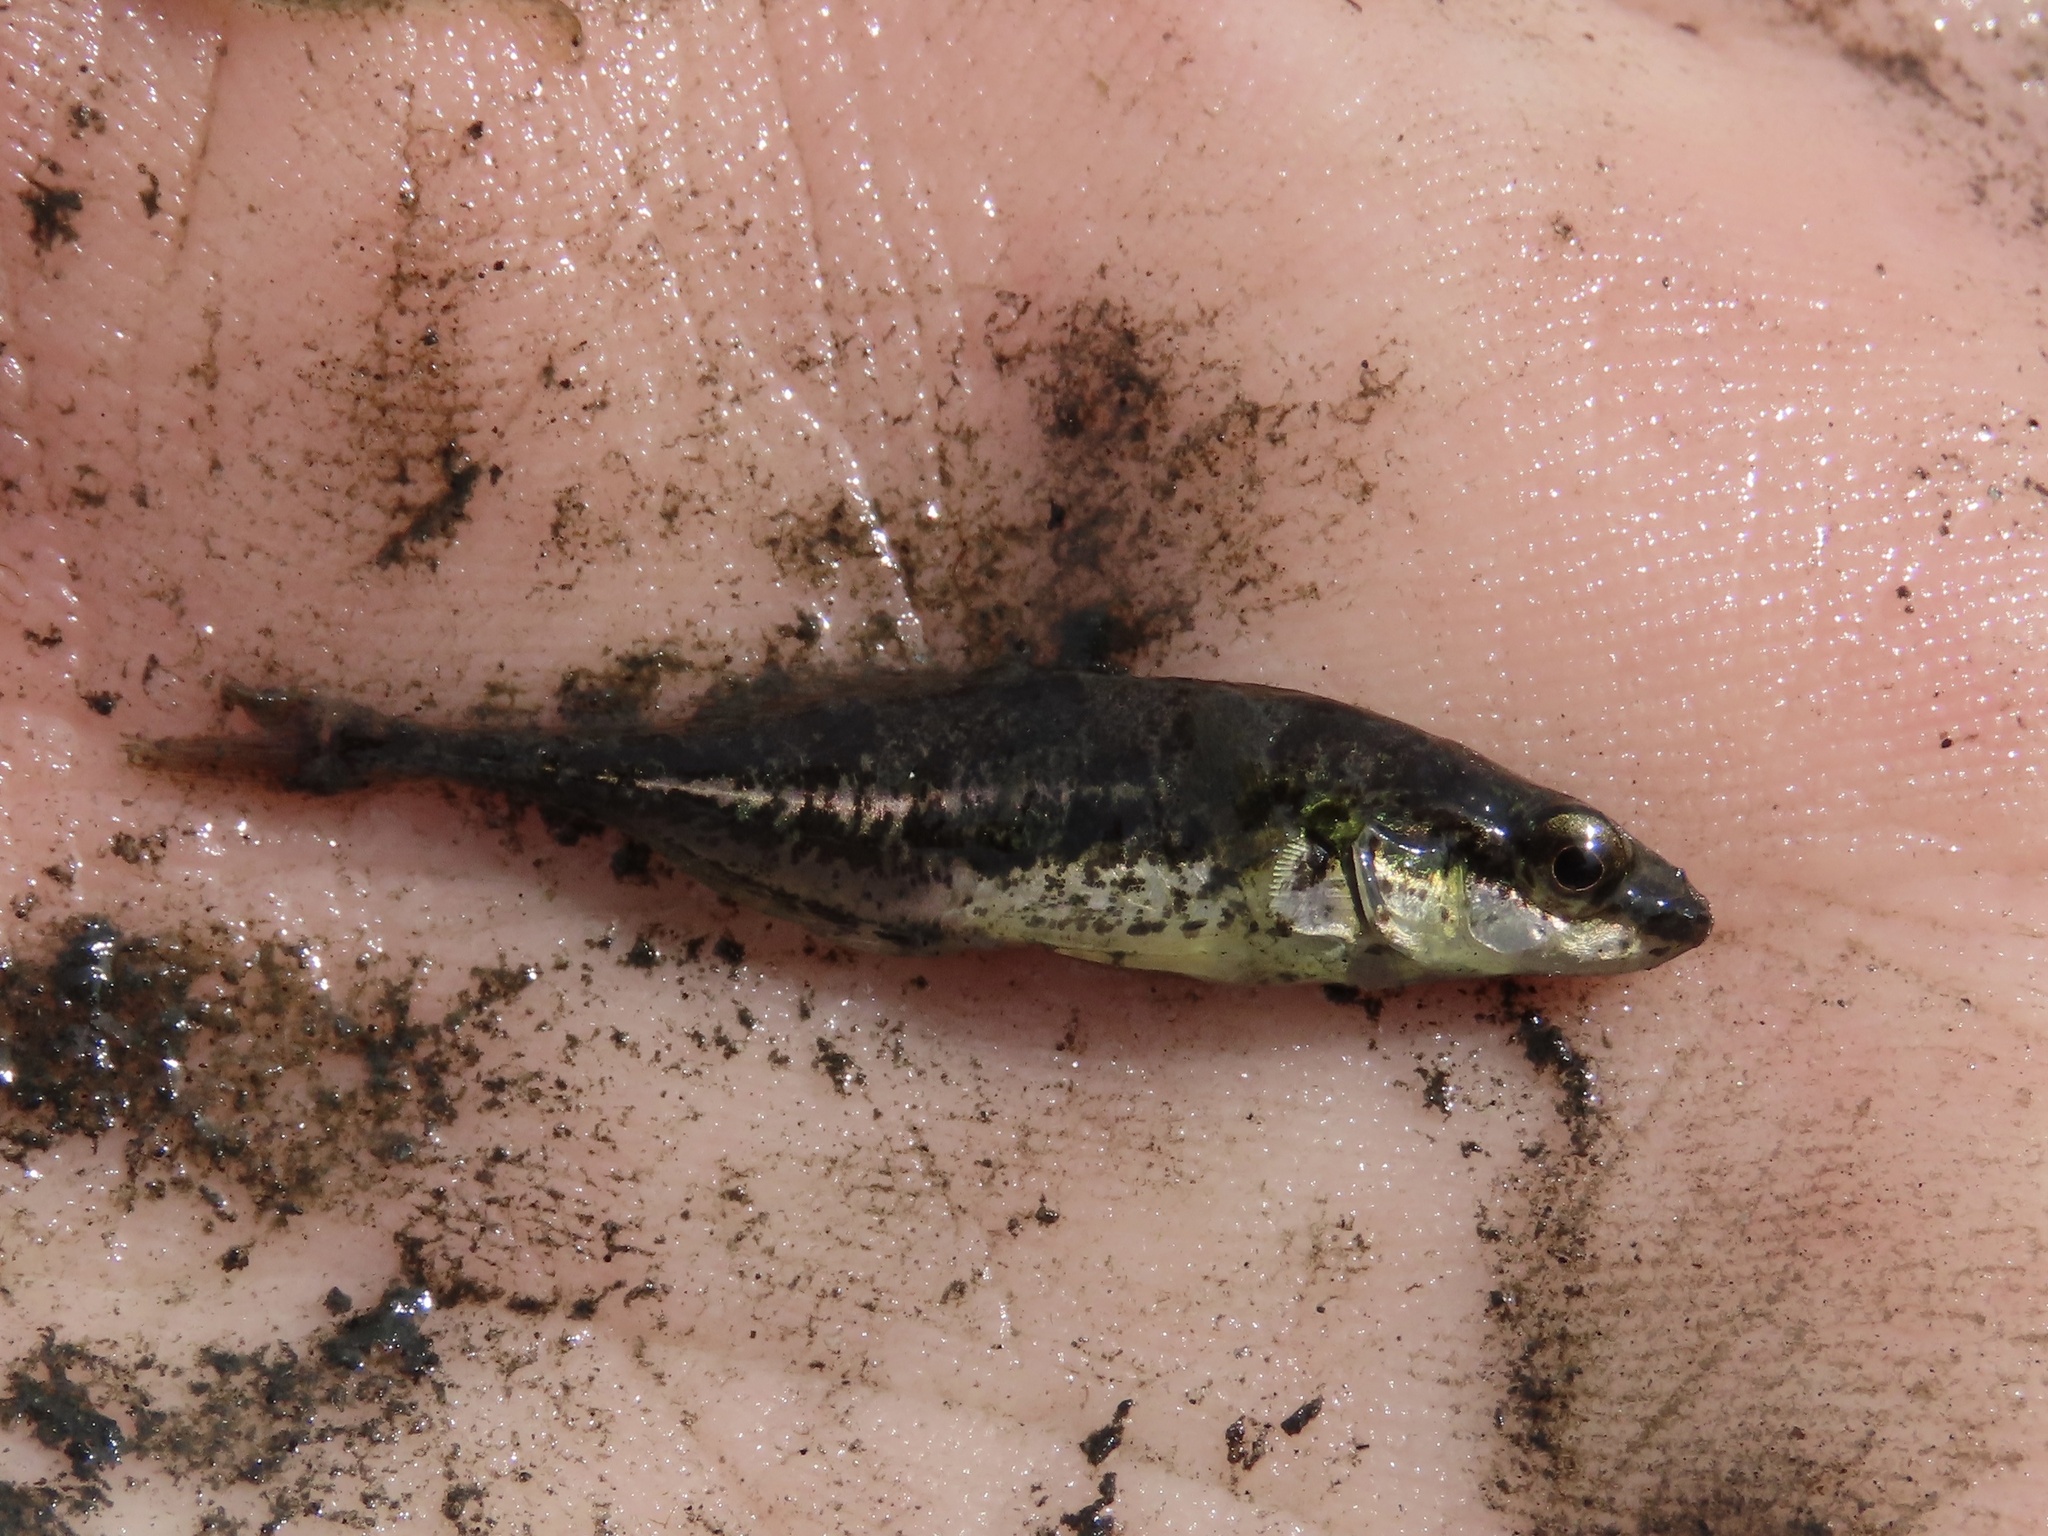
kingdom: Animalia
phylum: Chordata
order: Gasterosteiformes
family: Gasterosteidae
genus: Apeltes
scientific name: Apeltes quadracus
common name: Fourspine stickleback
